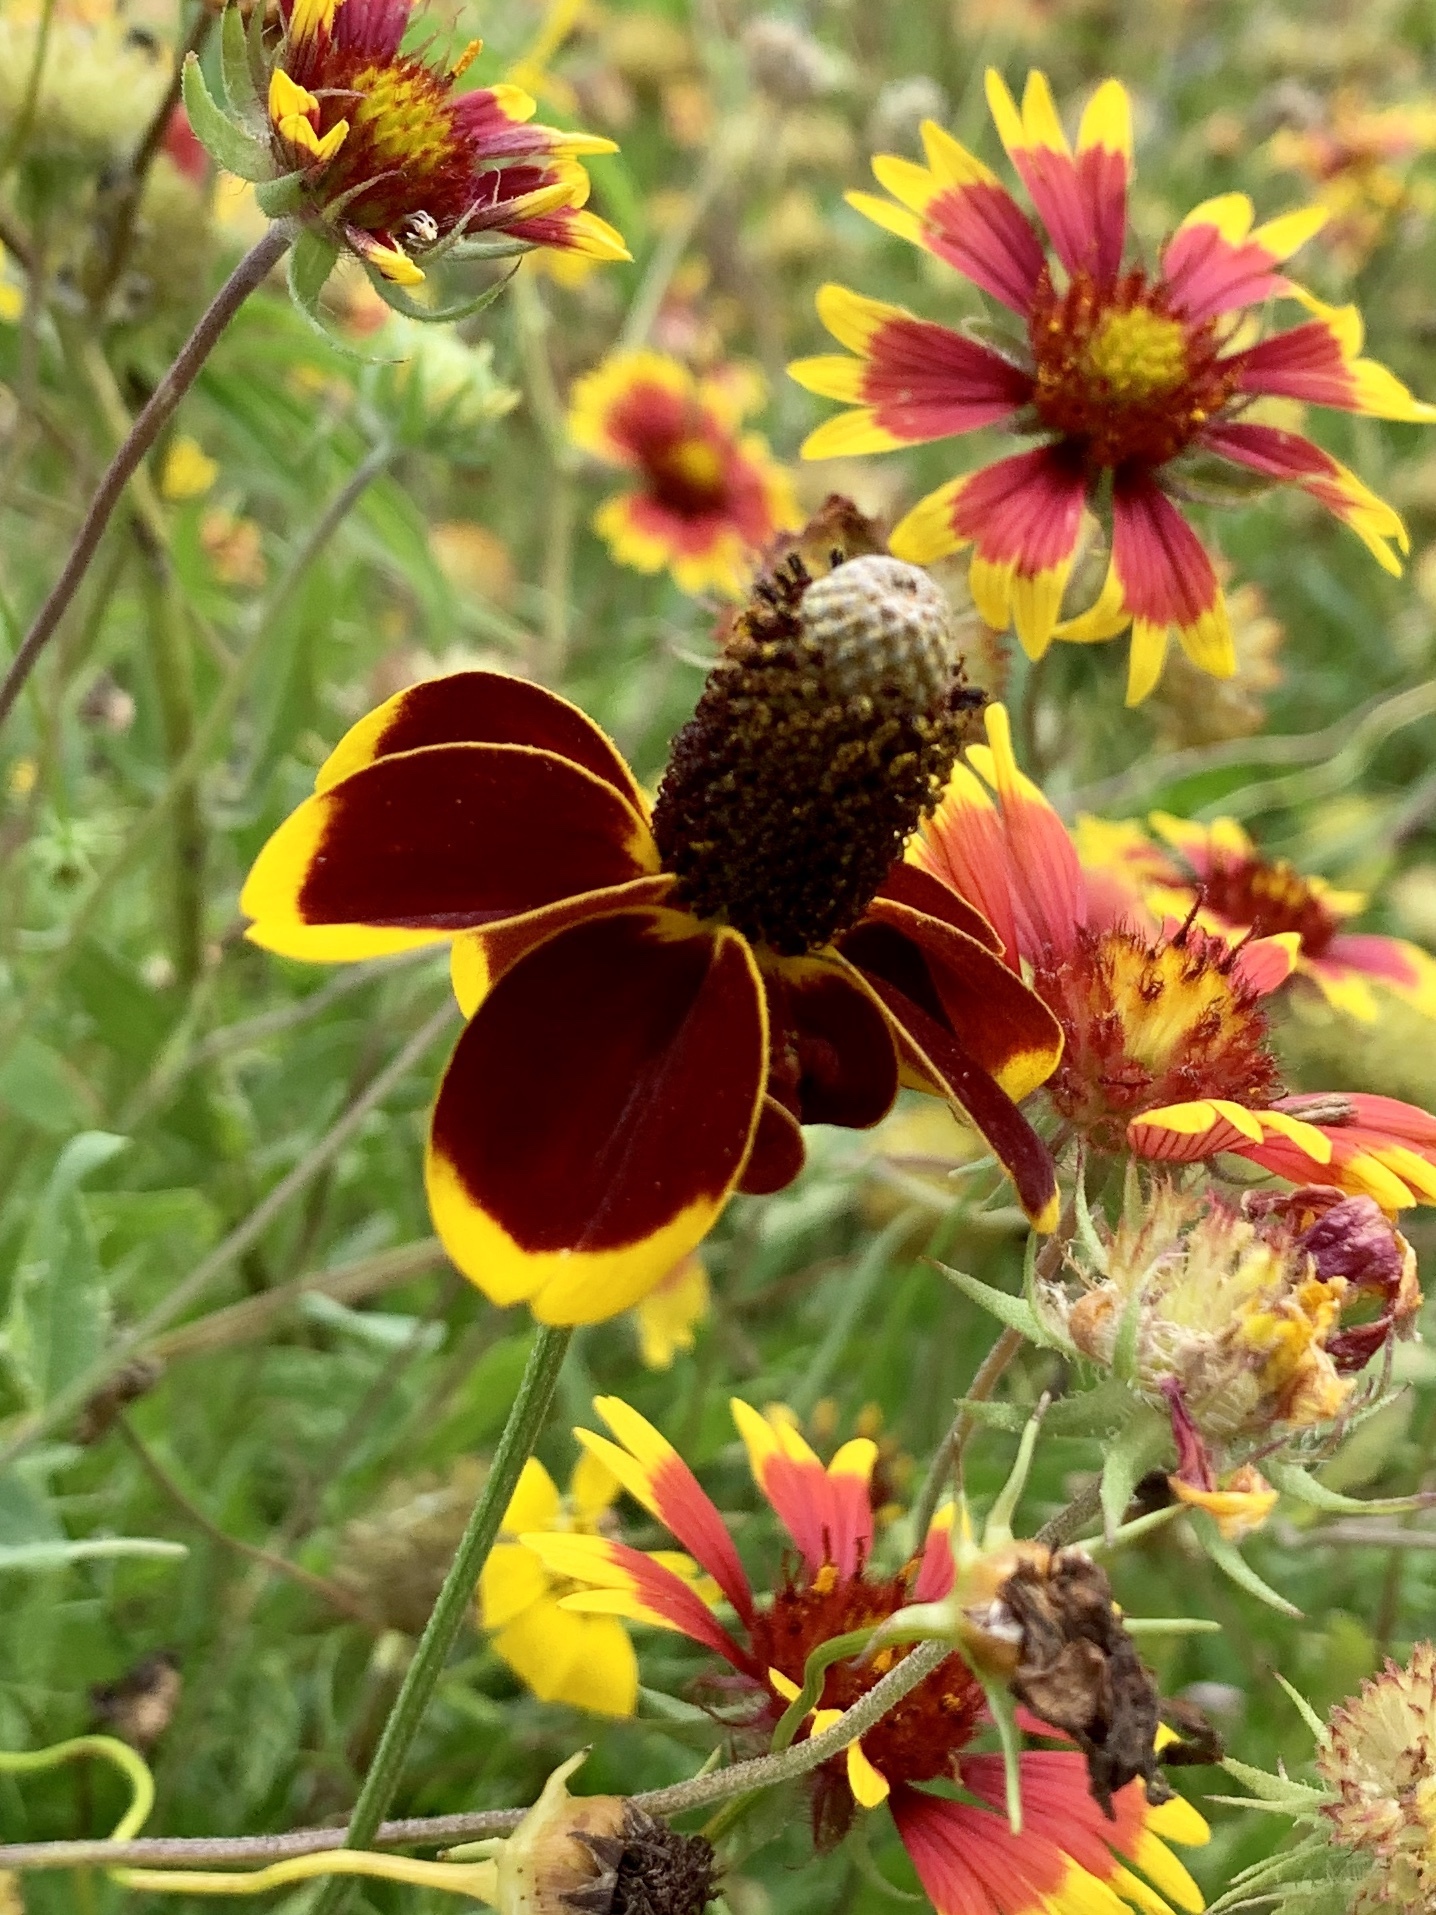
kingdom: Plantae
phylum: Tracheophyta
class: Magnoliopsida
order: Asterales
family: Asteraceae
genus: Ratibida
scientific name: Ratibida columnifera
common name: Prairie coneflower
